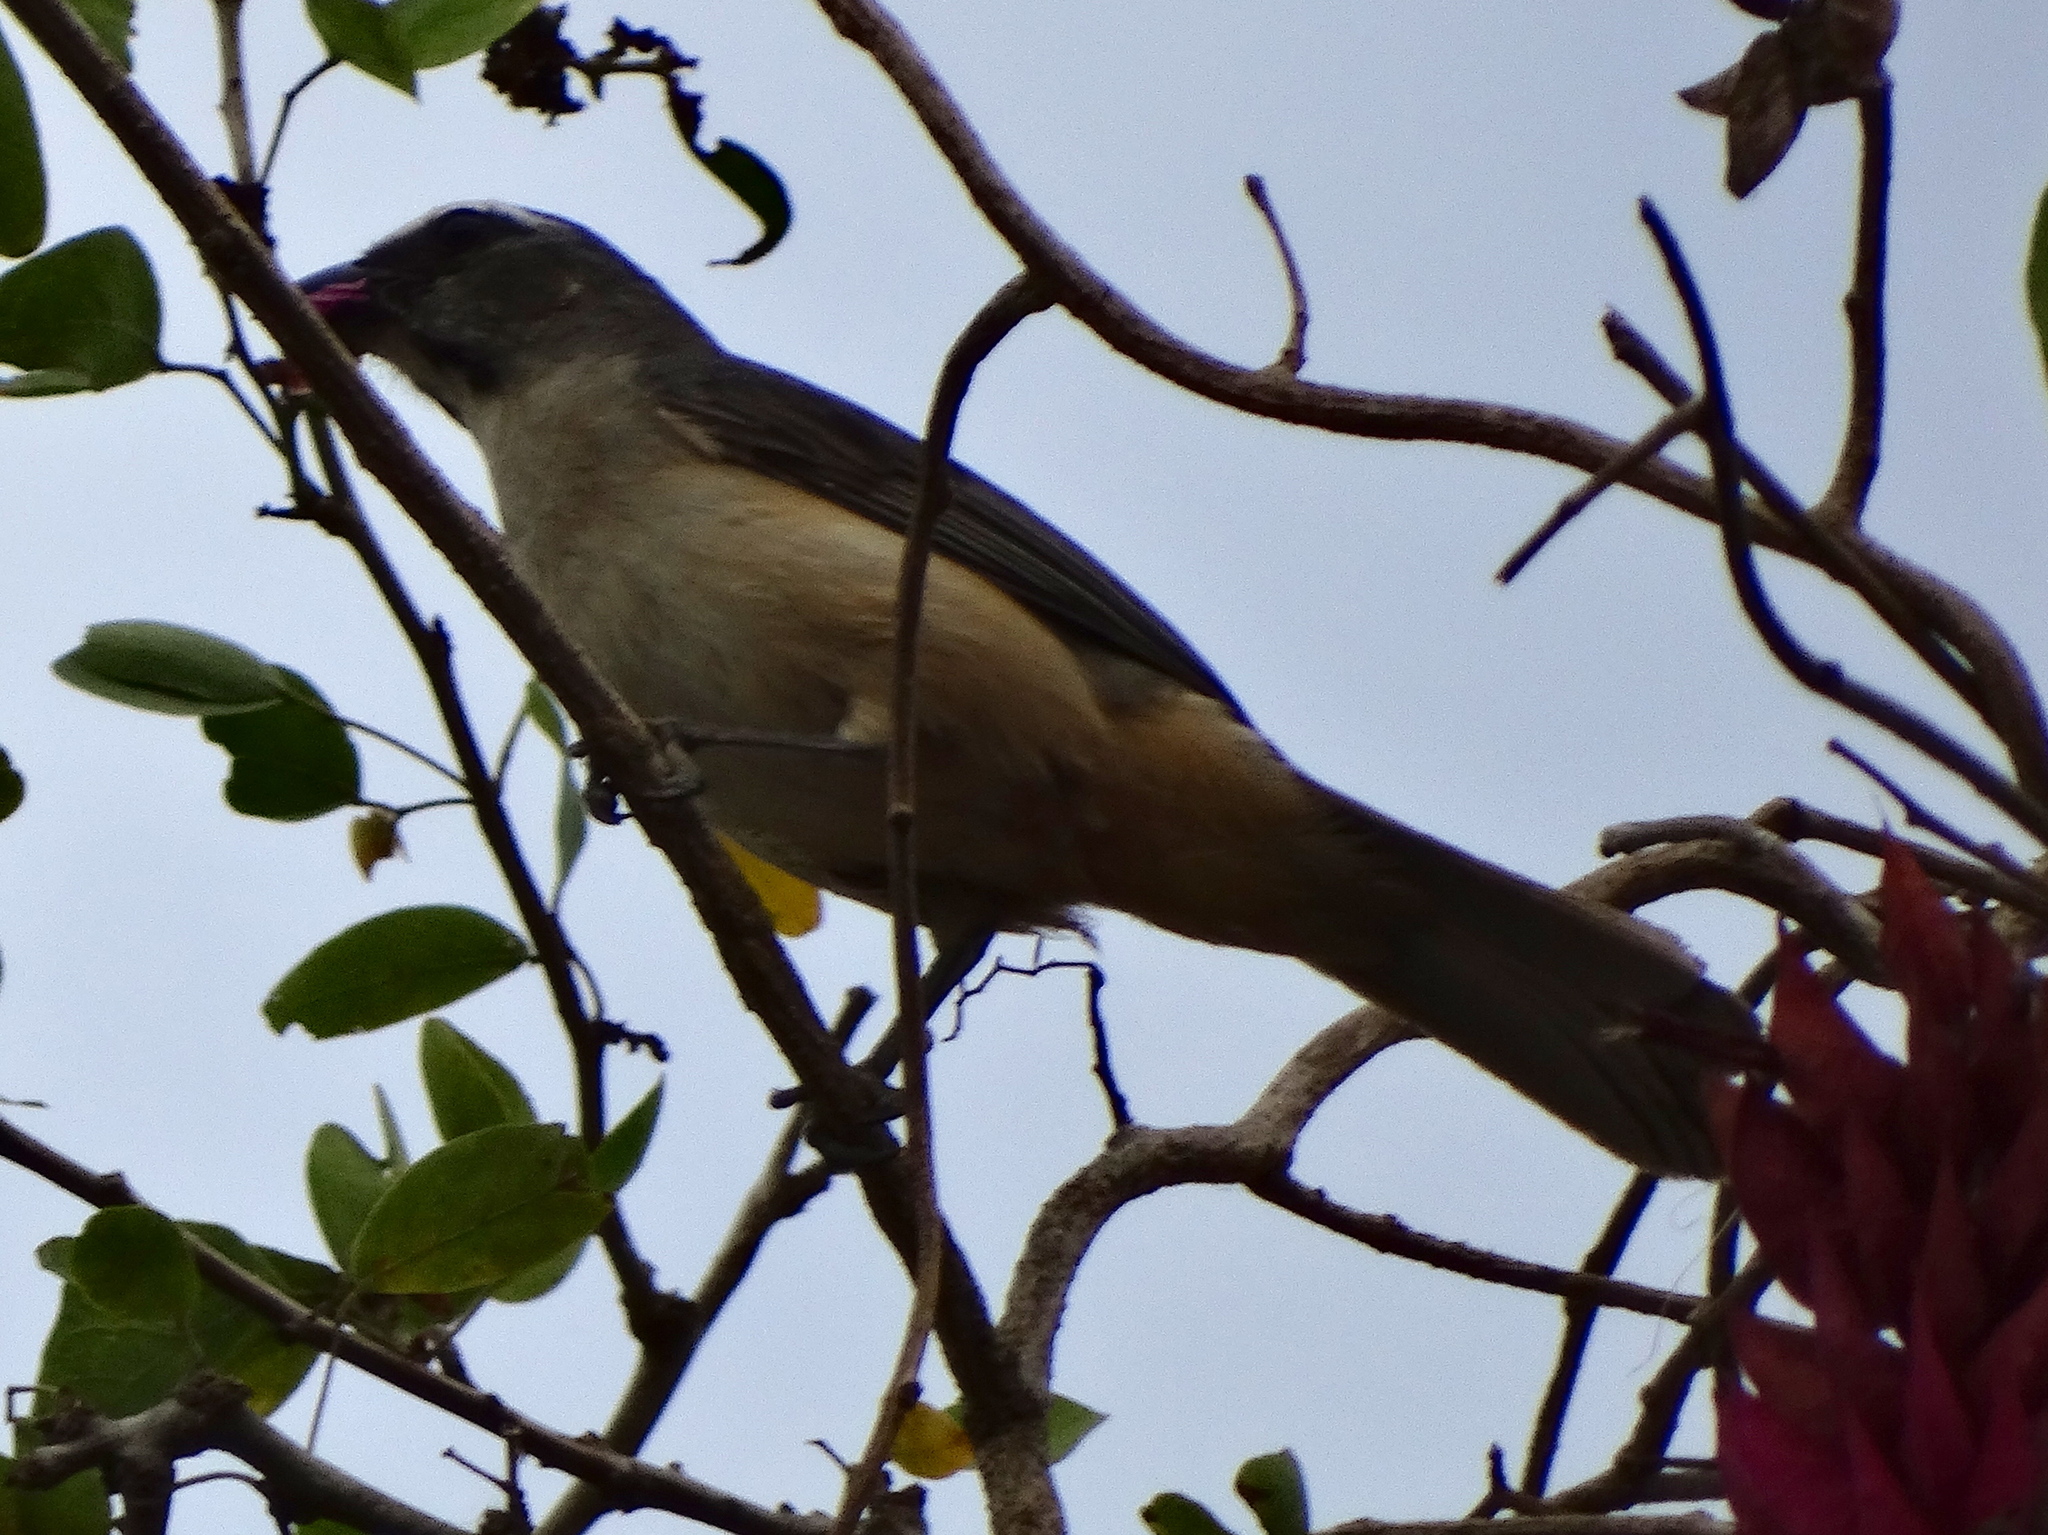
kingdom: Animalia
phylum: Chordata
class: Aves
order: Passeriformes
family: Thraupidae
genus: Saltator
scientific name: Saltator grandis
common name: Cinnamon-bellied saltator
